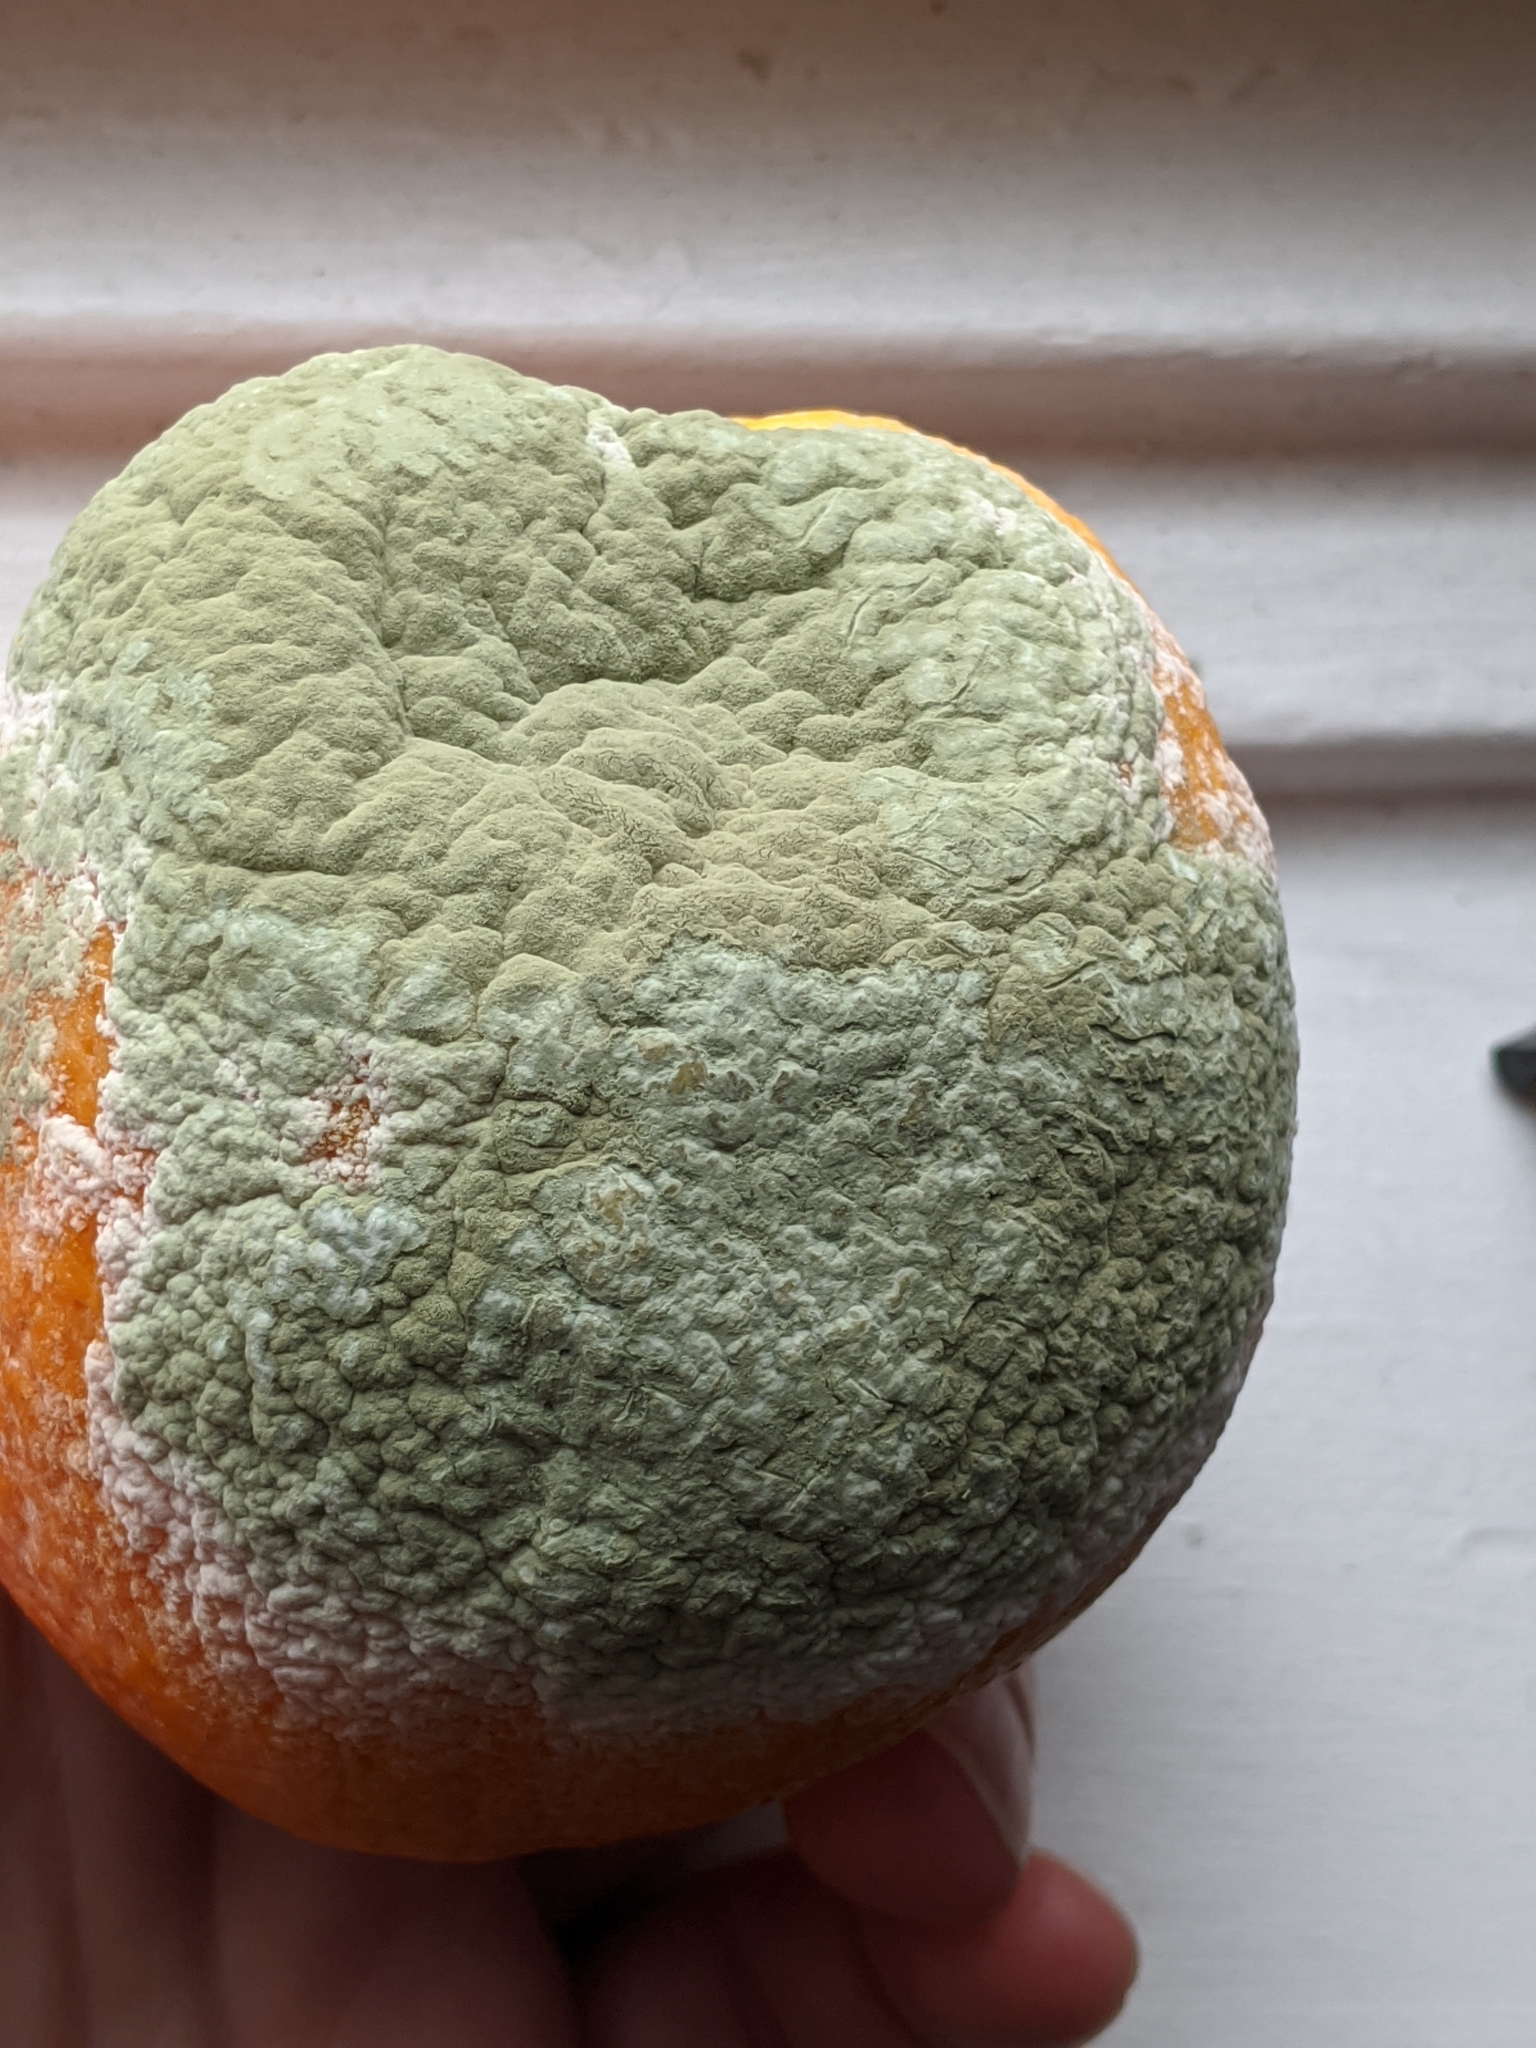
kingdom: Fungi
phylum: Ascomycota
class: Eurotiomycetes
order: Eurotiales
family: Aspergillaceae
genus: Penicillium
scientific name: Penicillium digitatum
